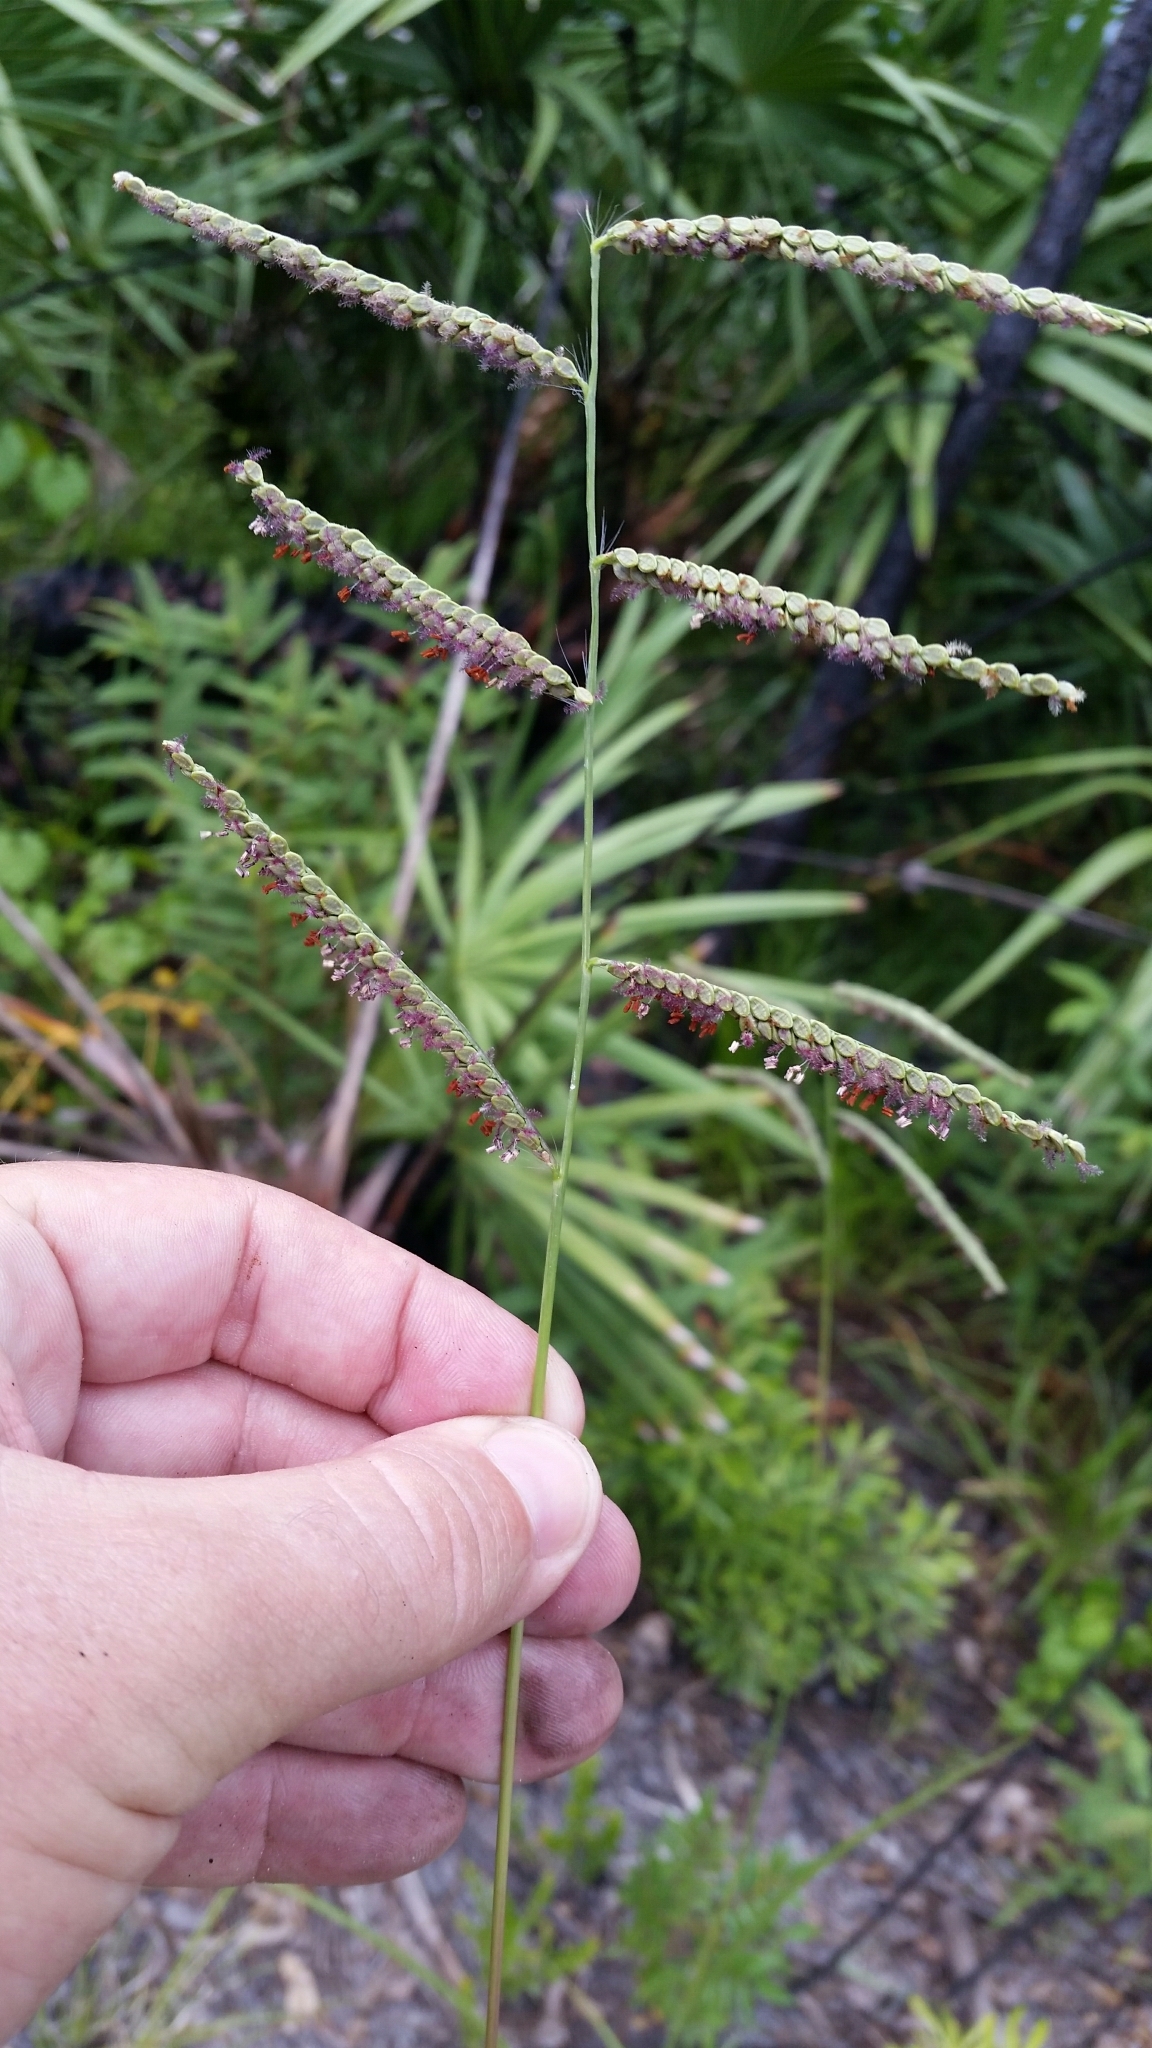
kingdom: Plantae
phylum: Tracheophyta
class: Liliopsida
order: Poales
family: Poaceae
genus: Paspalum
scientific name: Paspalum plicatulum
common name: Top paspalum
